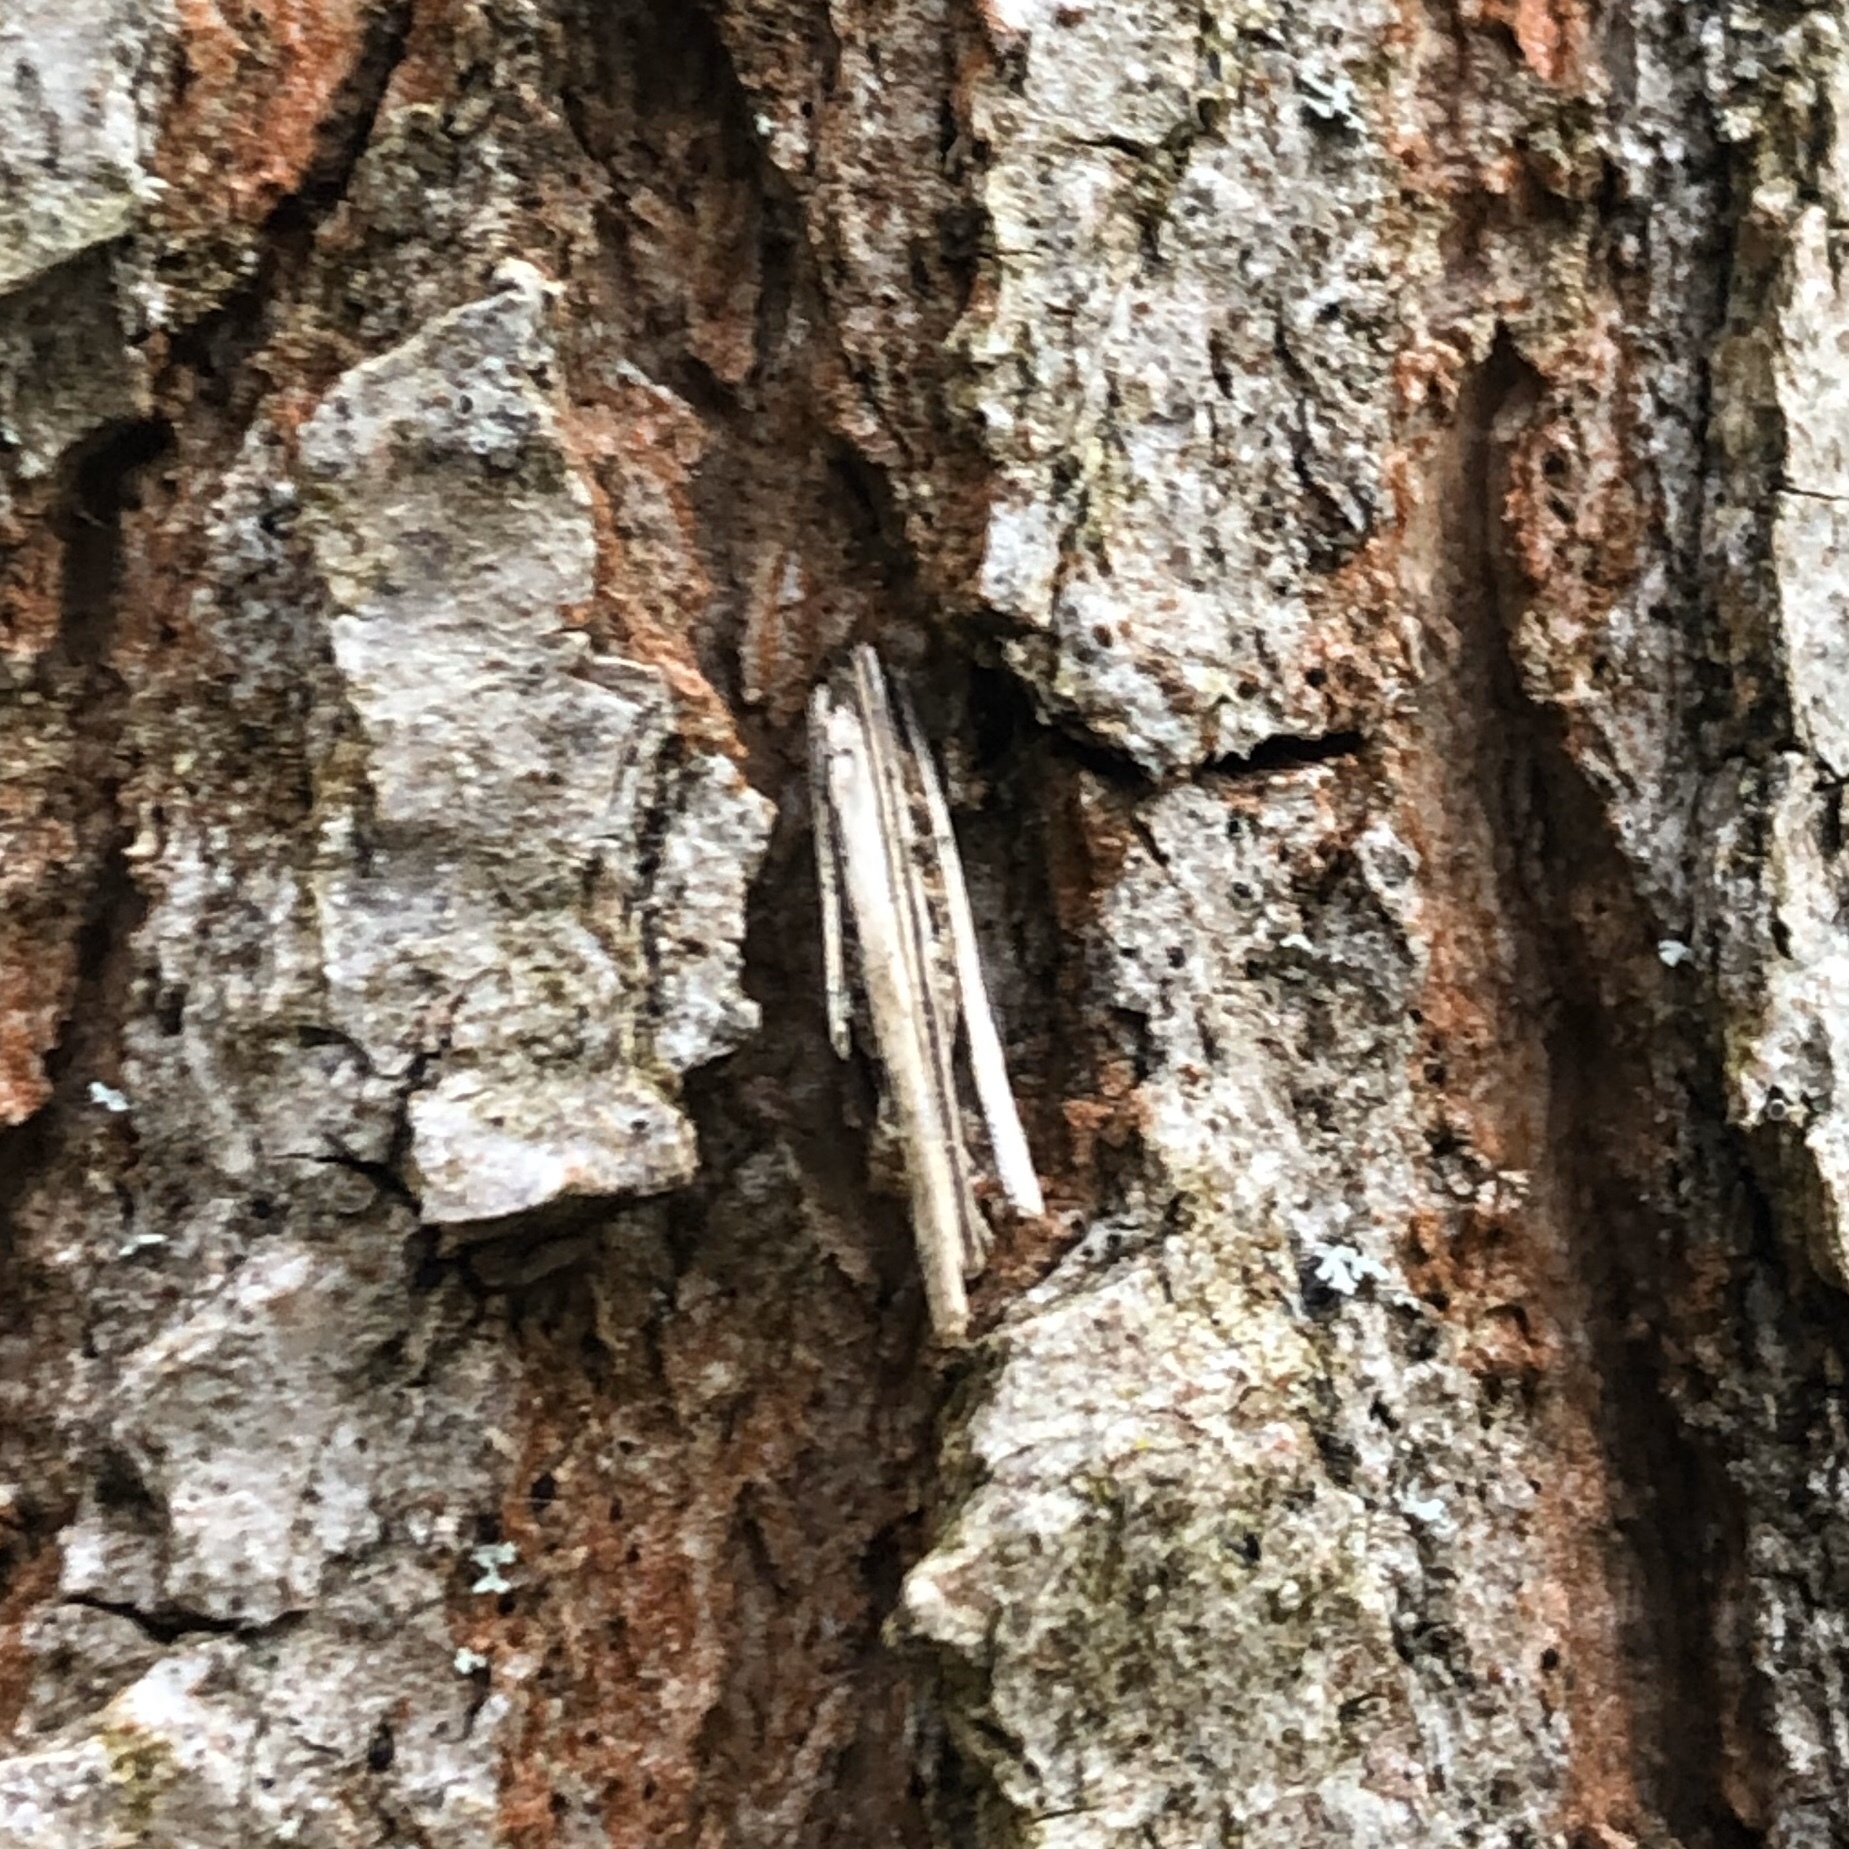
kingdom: Animalia
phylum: Arthropoda
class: Insecta
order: Lepidoptera
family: Psychidae
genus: Psyche
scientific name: Psyche casta
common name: Common sweep
